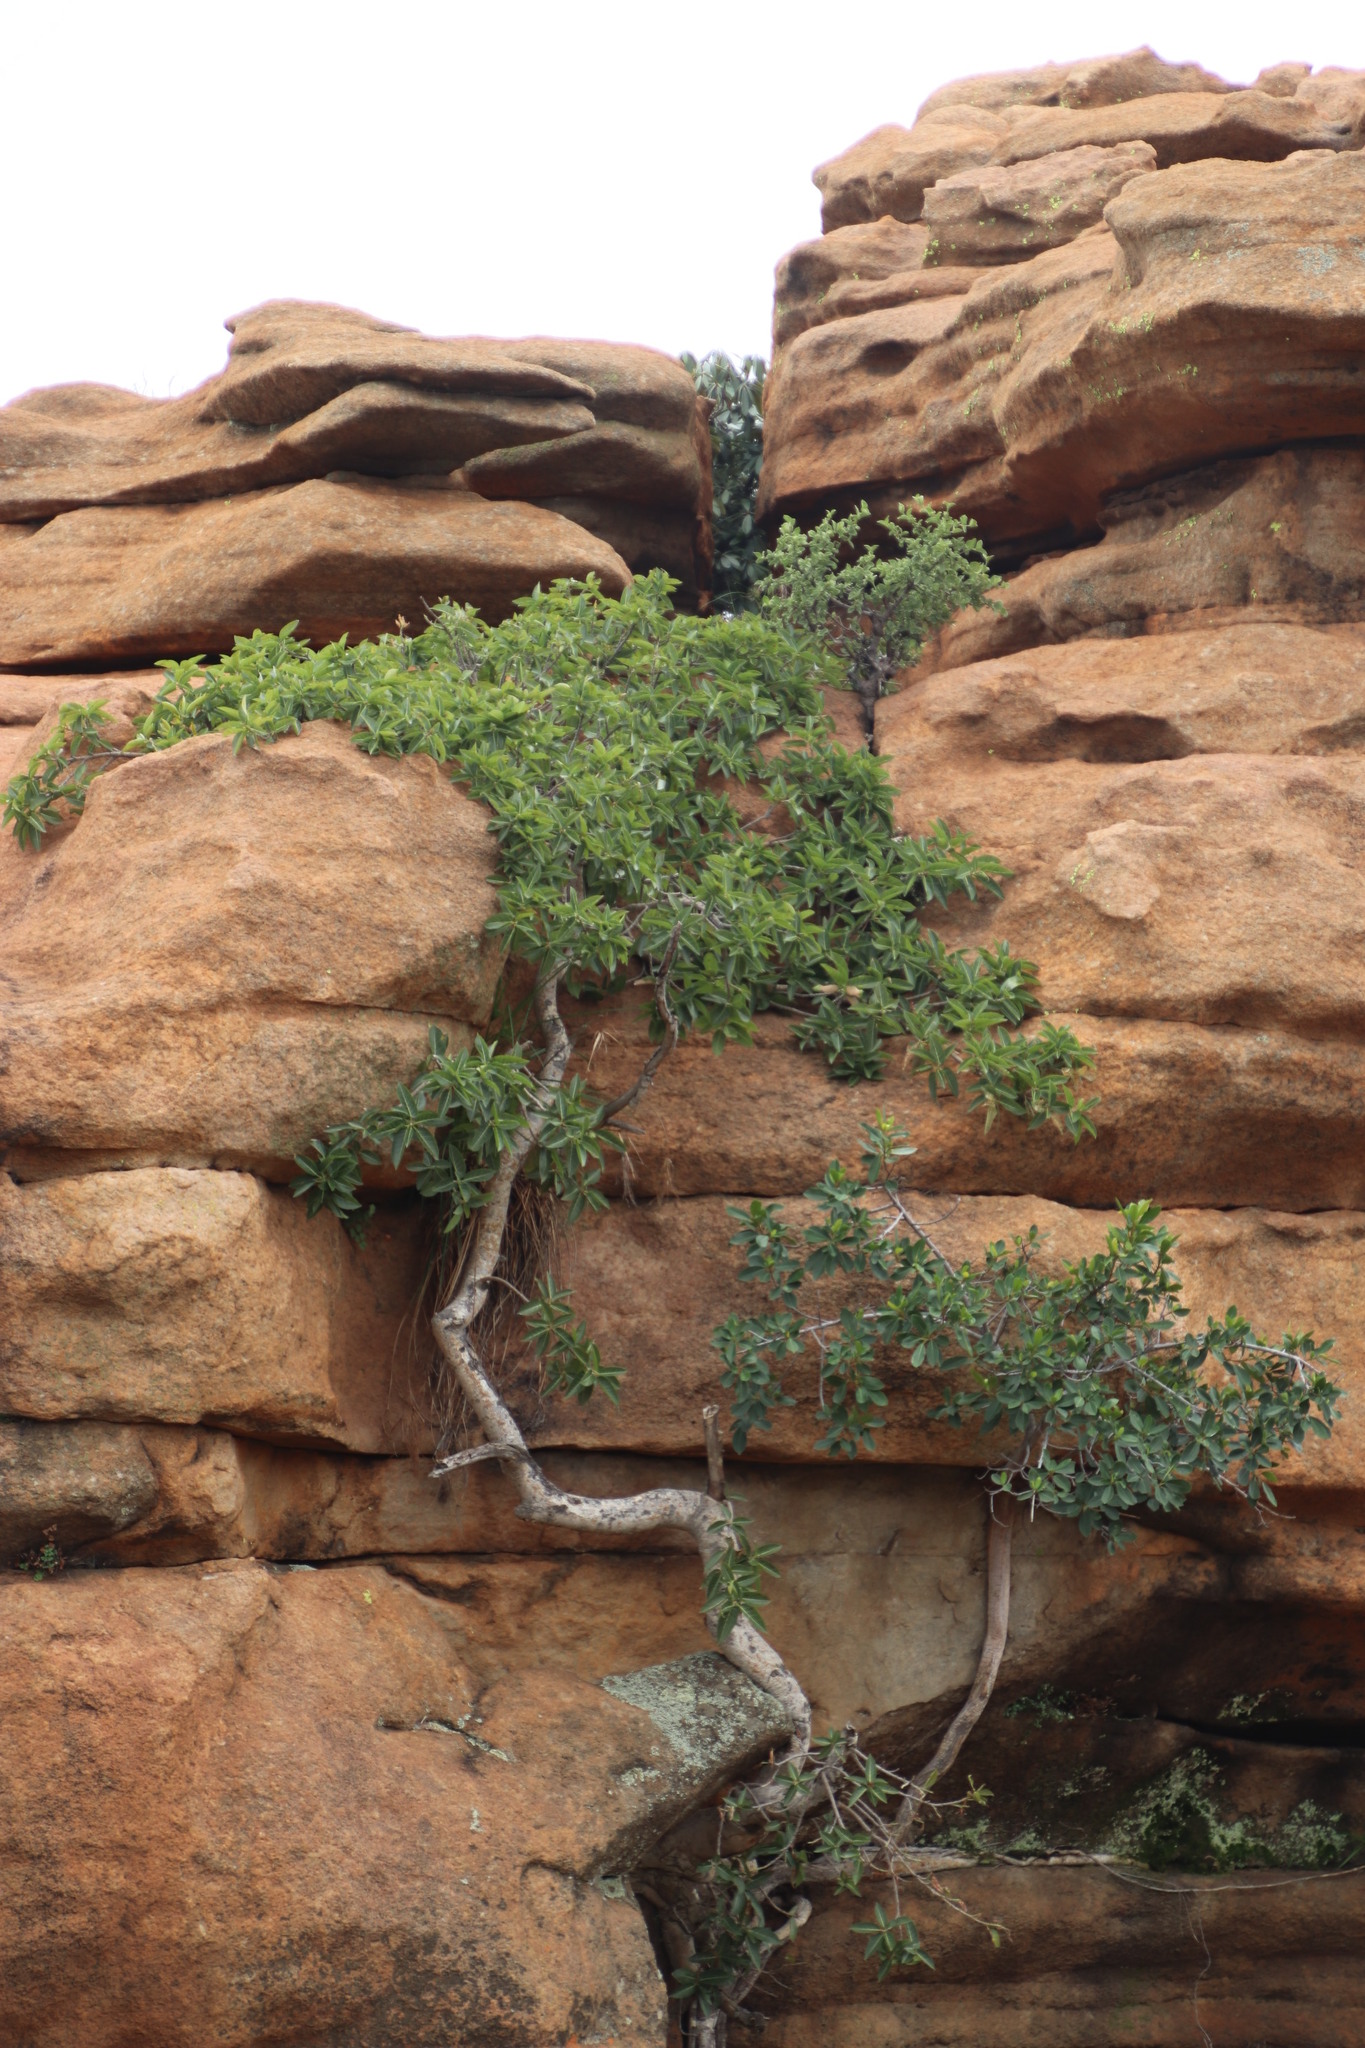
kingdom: Plantae
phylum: Tracheophyta
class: Magnoliopsida
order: Rosales
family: Moraceae
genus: Ficus
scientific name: Ficus ingens
